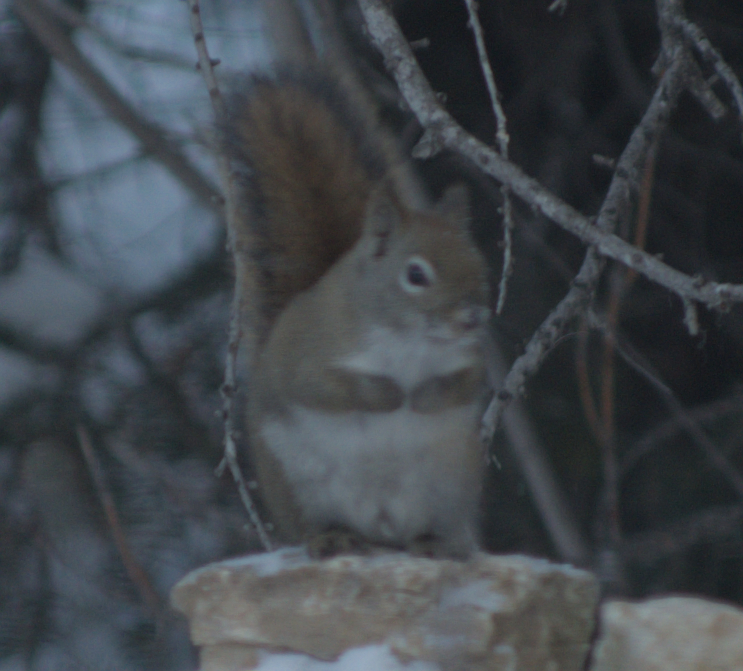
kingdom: Animalia
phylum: Chordata
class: Mammalia
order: Rodentia
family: Sciuridae
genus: Tamiasciurus
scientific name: Tamiasciurus hudsonicus
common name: Red squirrel
